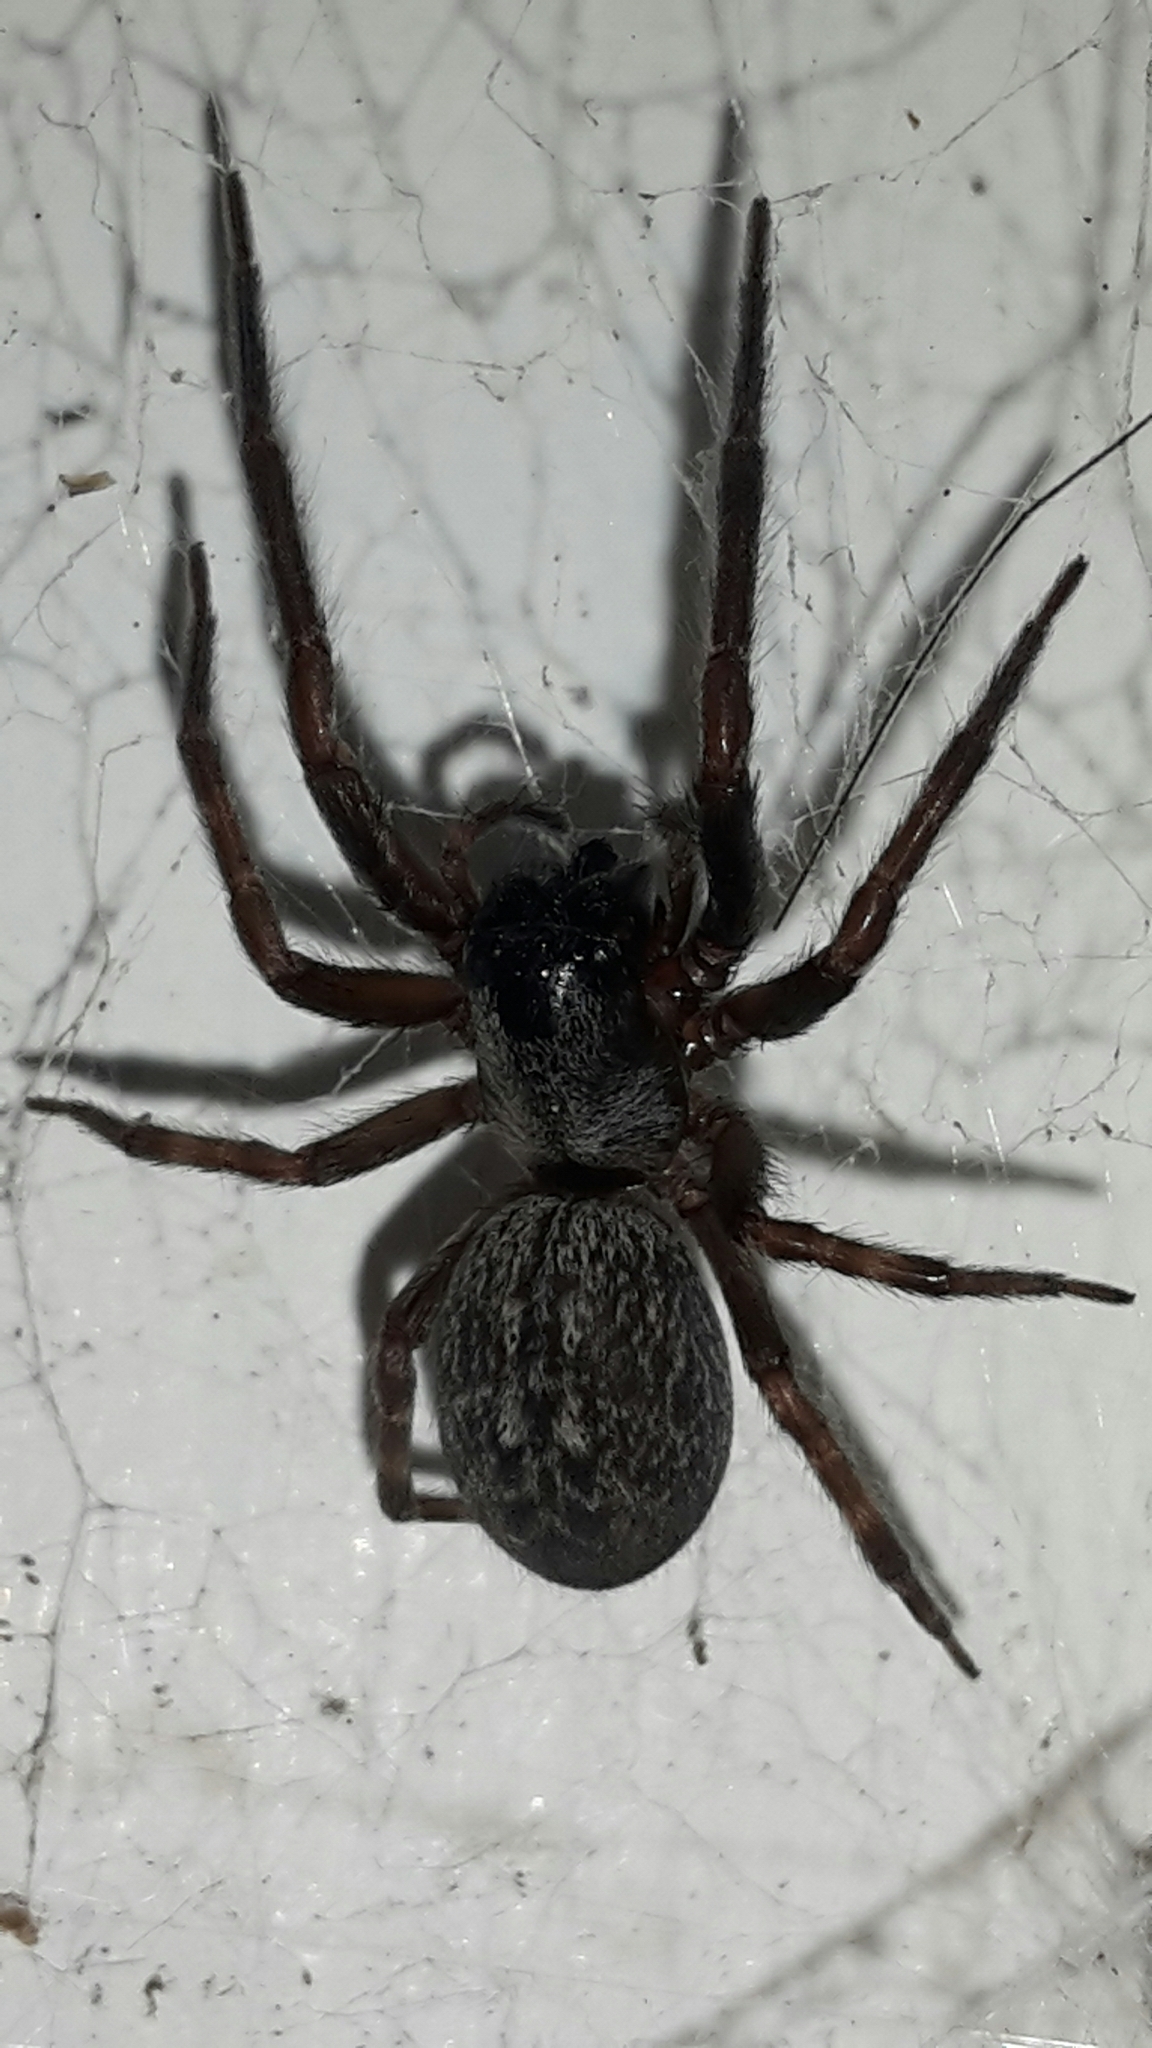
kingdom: Animalia
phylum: Arthropoda
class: Arachnida
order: Araneae
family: Desidae
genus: Badumna
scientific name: Badumna insignis
